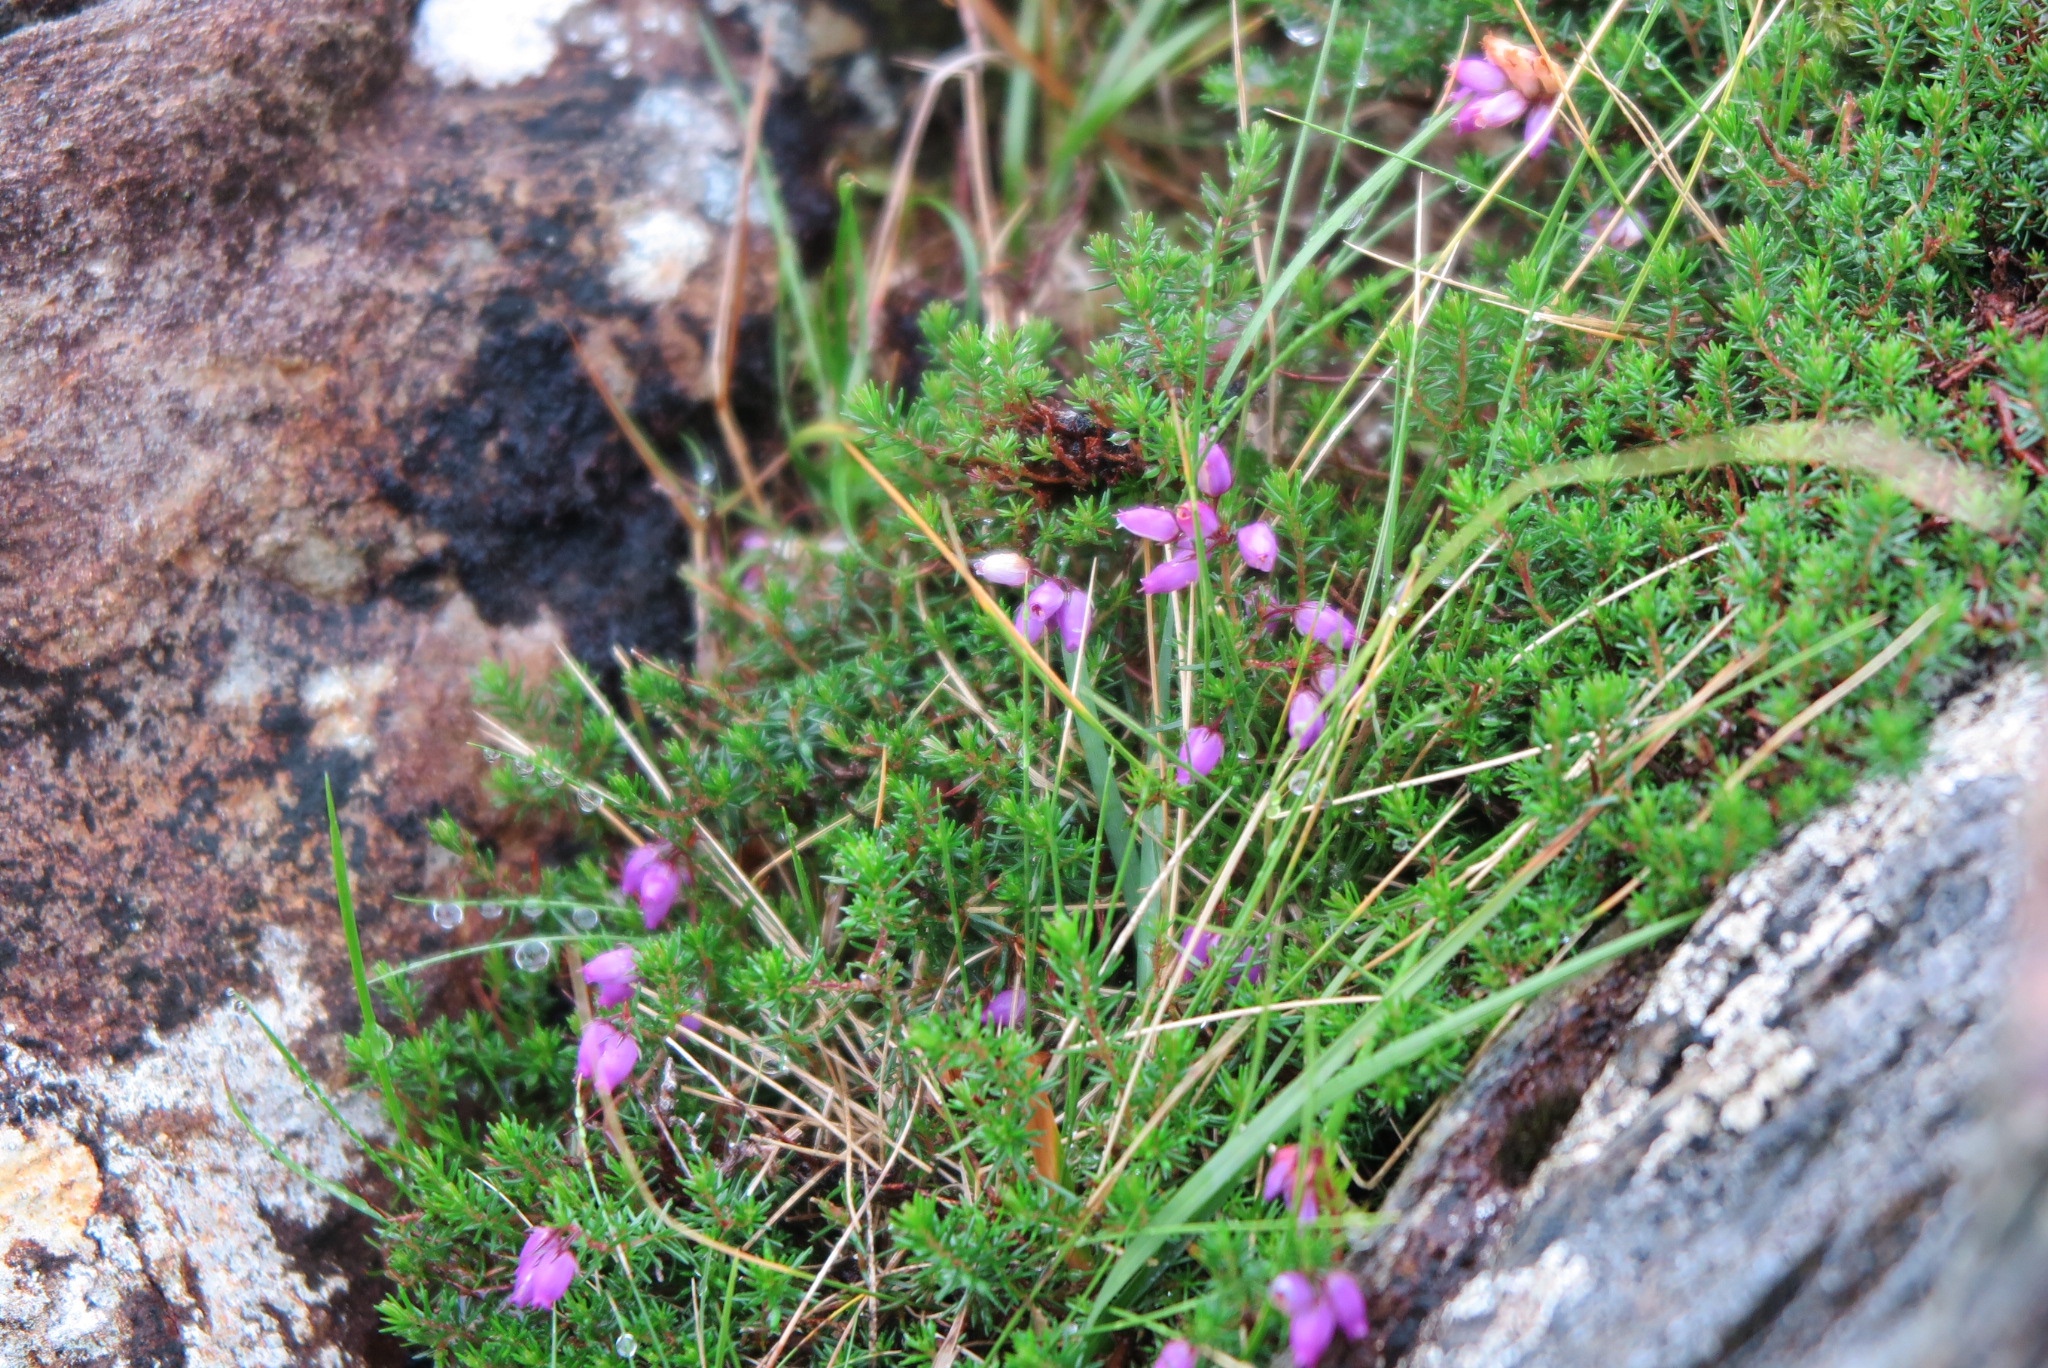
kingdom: Plantae
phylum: Tracheophyta
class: Magnoliopsida
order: Ericales
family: Ericaceae
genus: Erica
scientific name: Erica cinerea
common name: Bell heather
